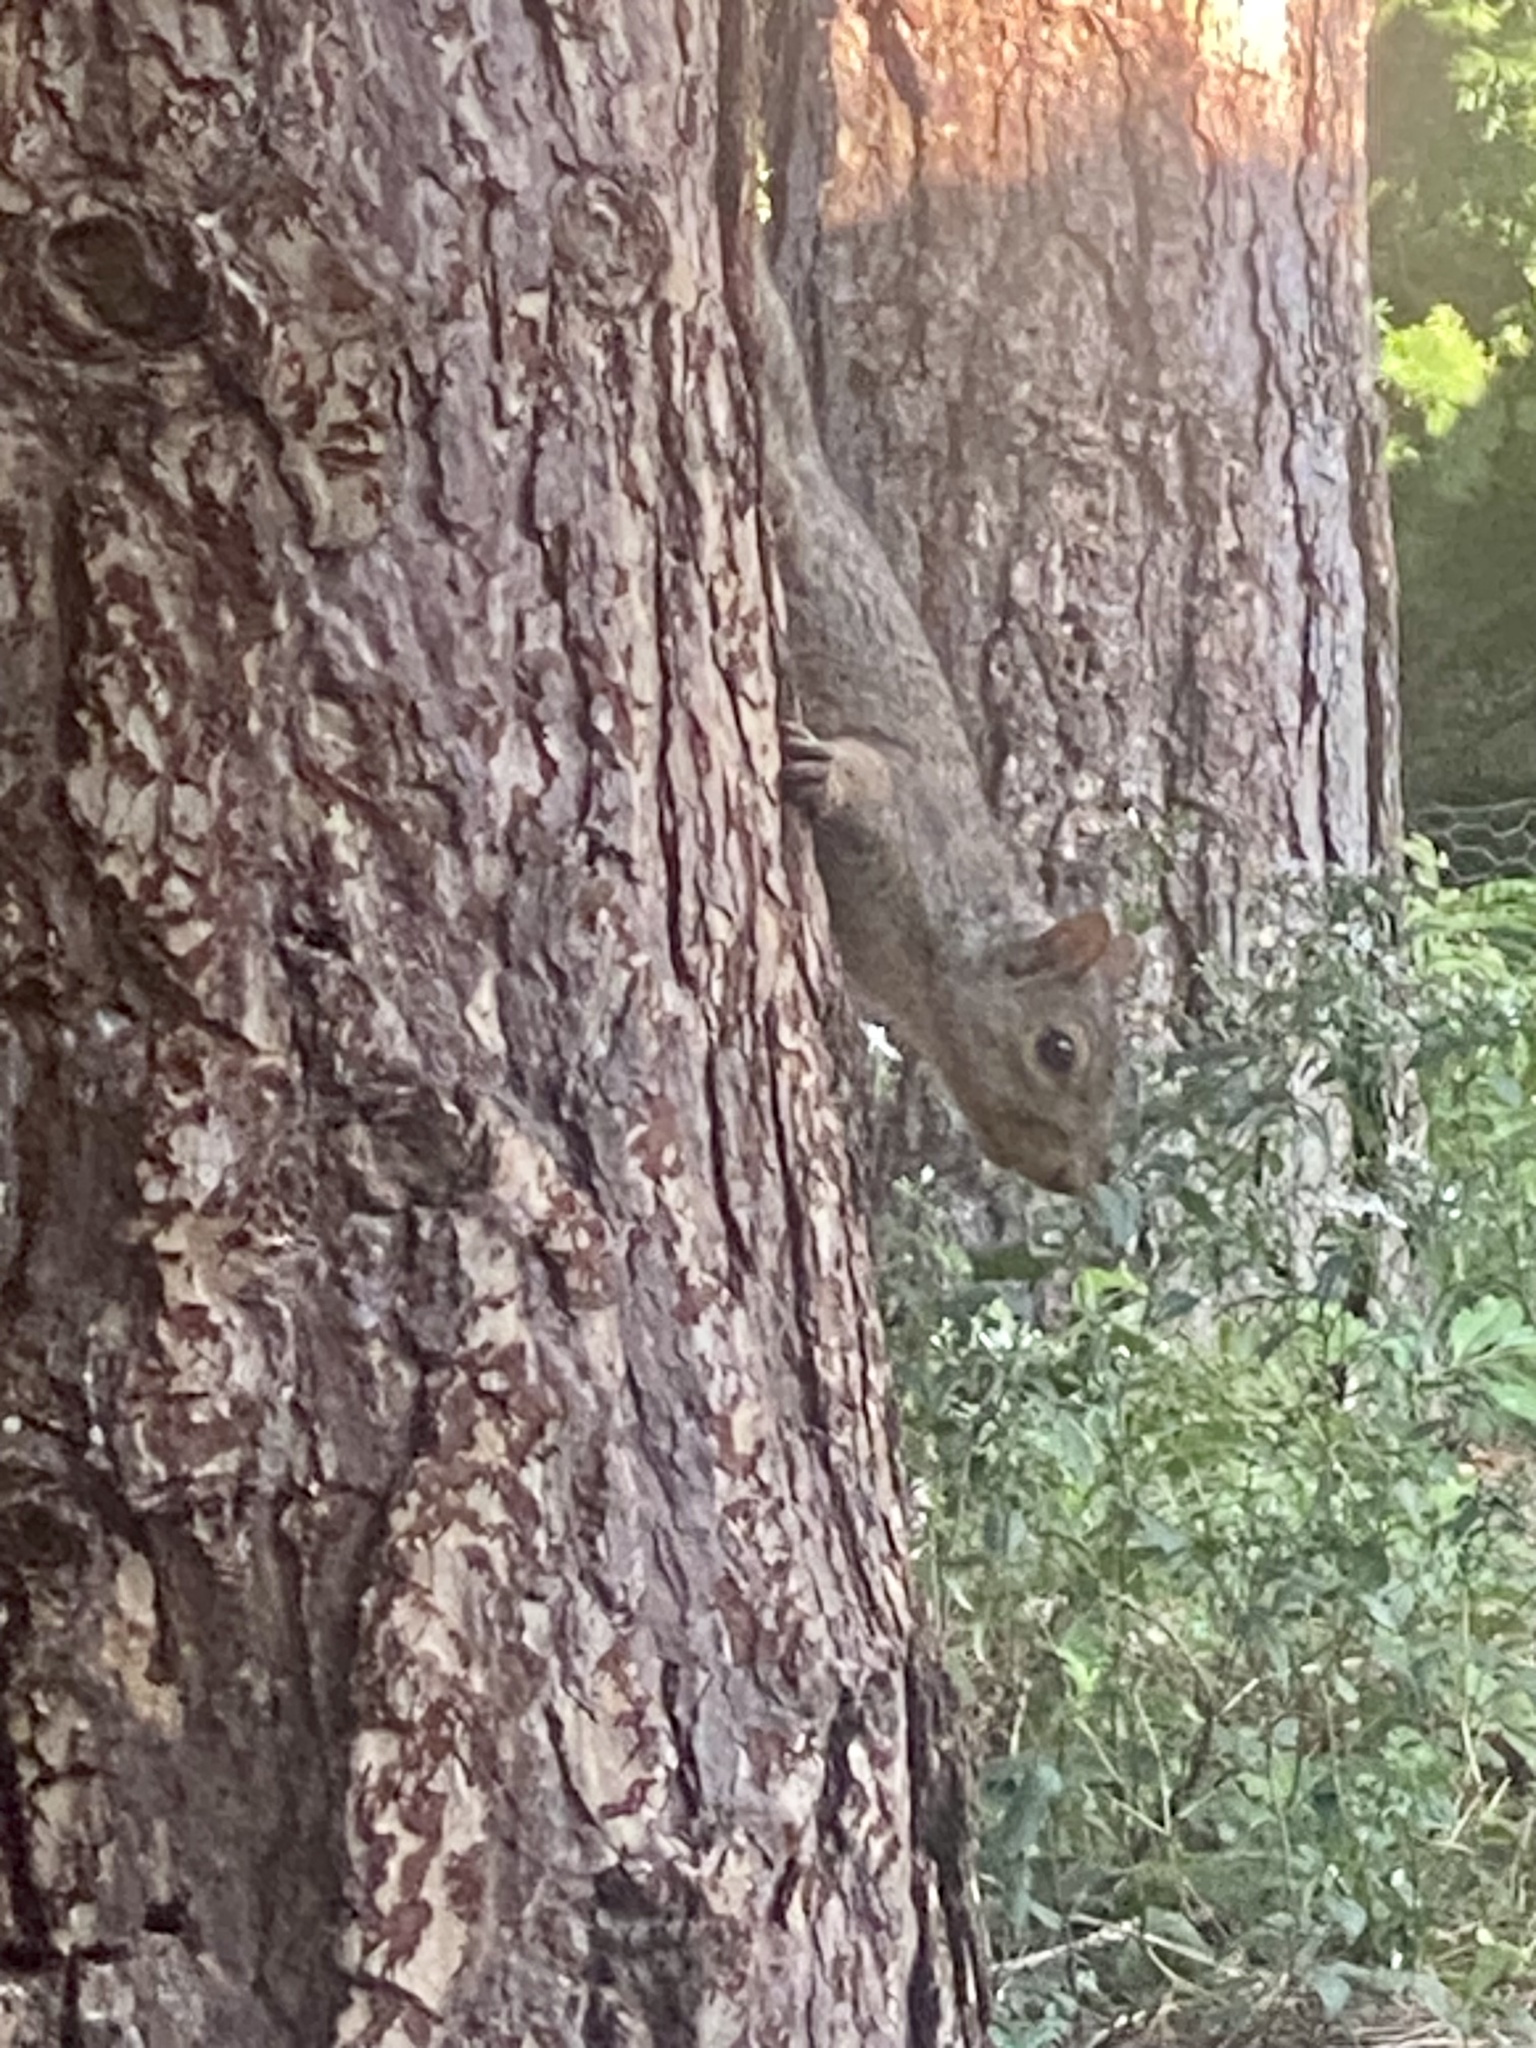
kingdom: Animalia
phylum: Chordata
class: Mammalia
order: Rodentia
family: Sciuridae
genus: Sciurus
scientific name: Sciurus carolinensis
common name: Eastern gray squirrel
